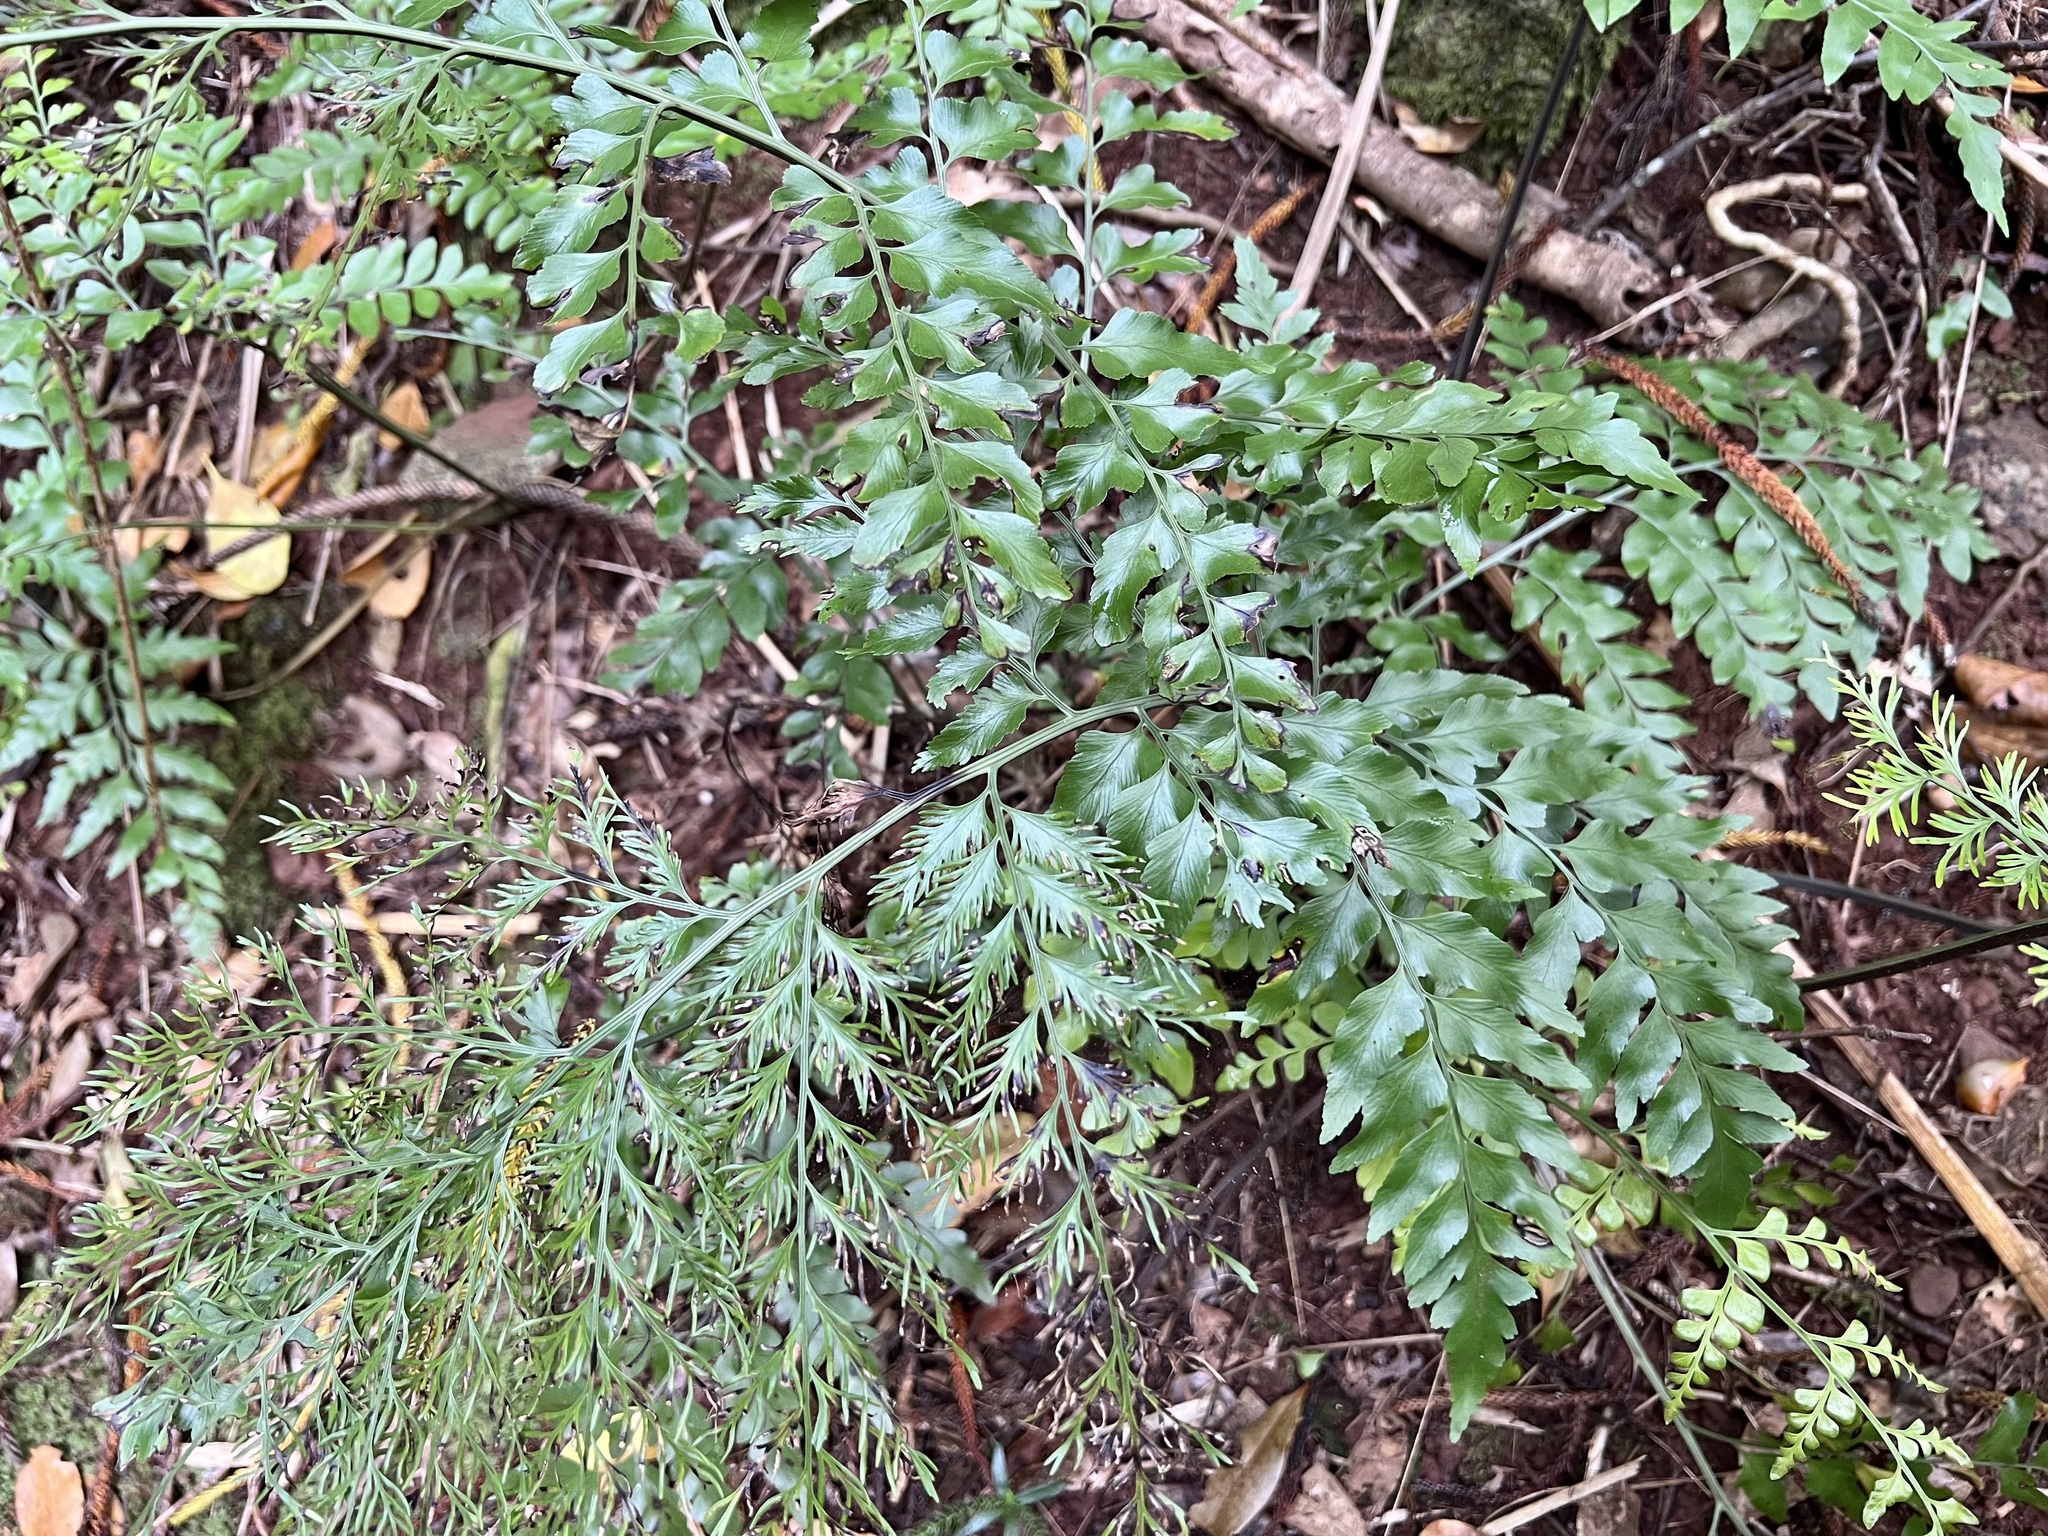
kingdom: Plantae
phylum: Tracheophyta
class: Polypodiopsida
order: Polypodiales
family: Aspleniaceae
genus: Asplenium
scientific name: Asplenium dimorphum
